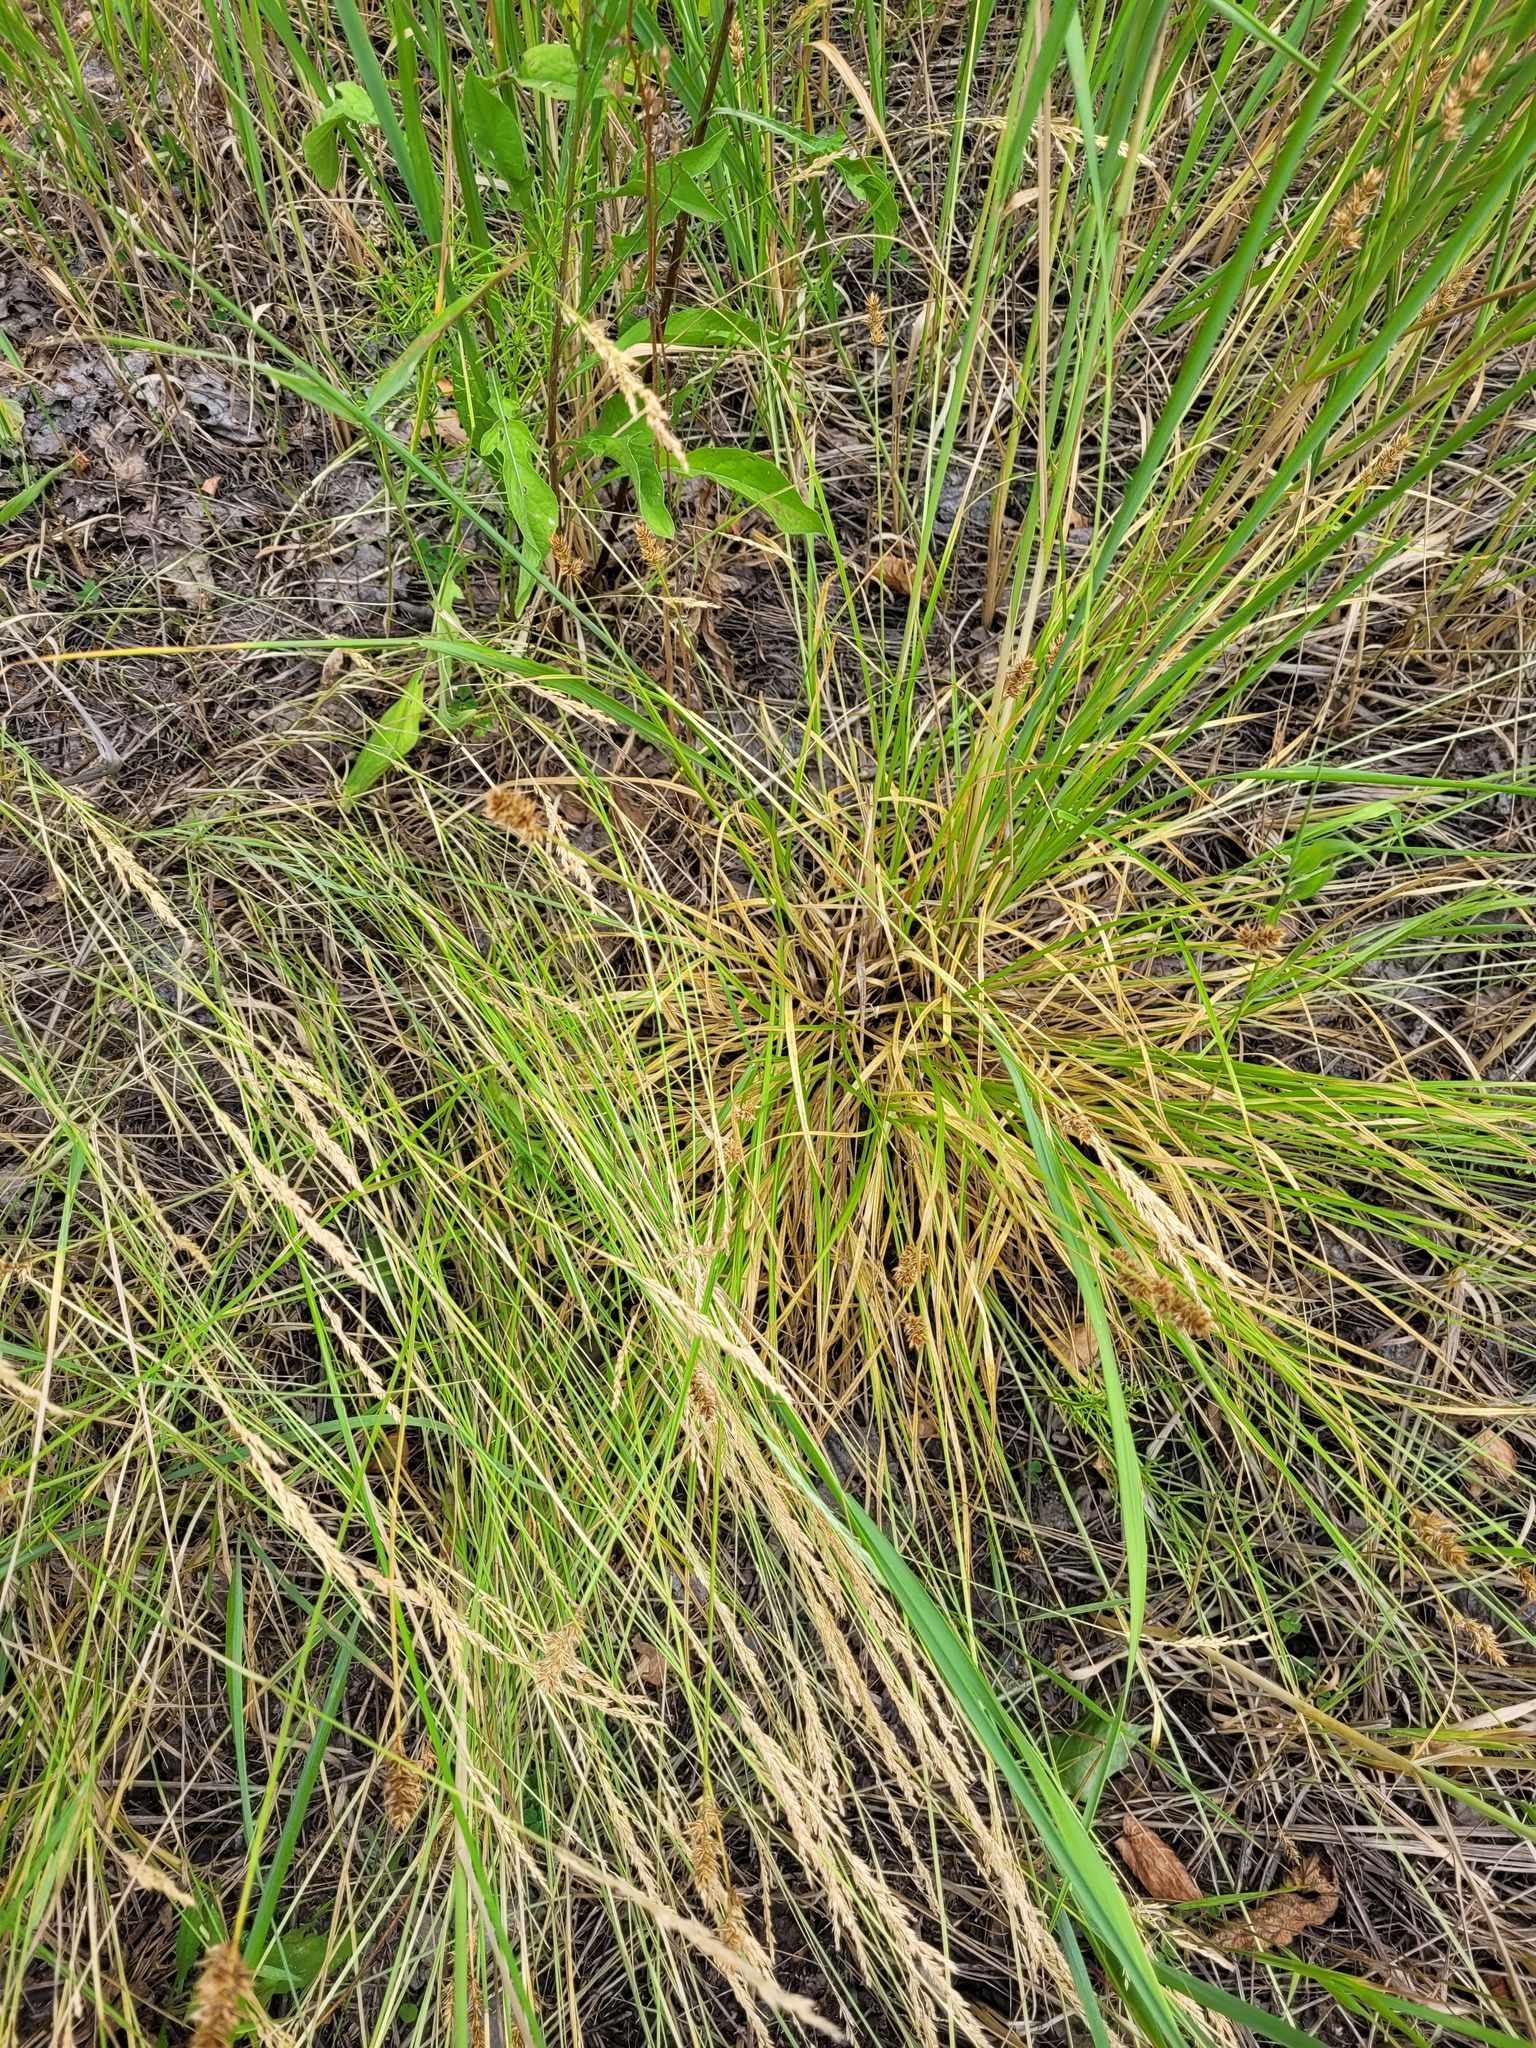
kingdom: Plantae
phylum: Tracheophyta
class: Liliopsida
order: Poales
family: Cyperaceae
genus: Carex
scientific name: Carex spicata
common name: Spiked sedge
